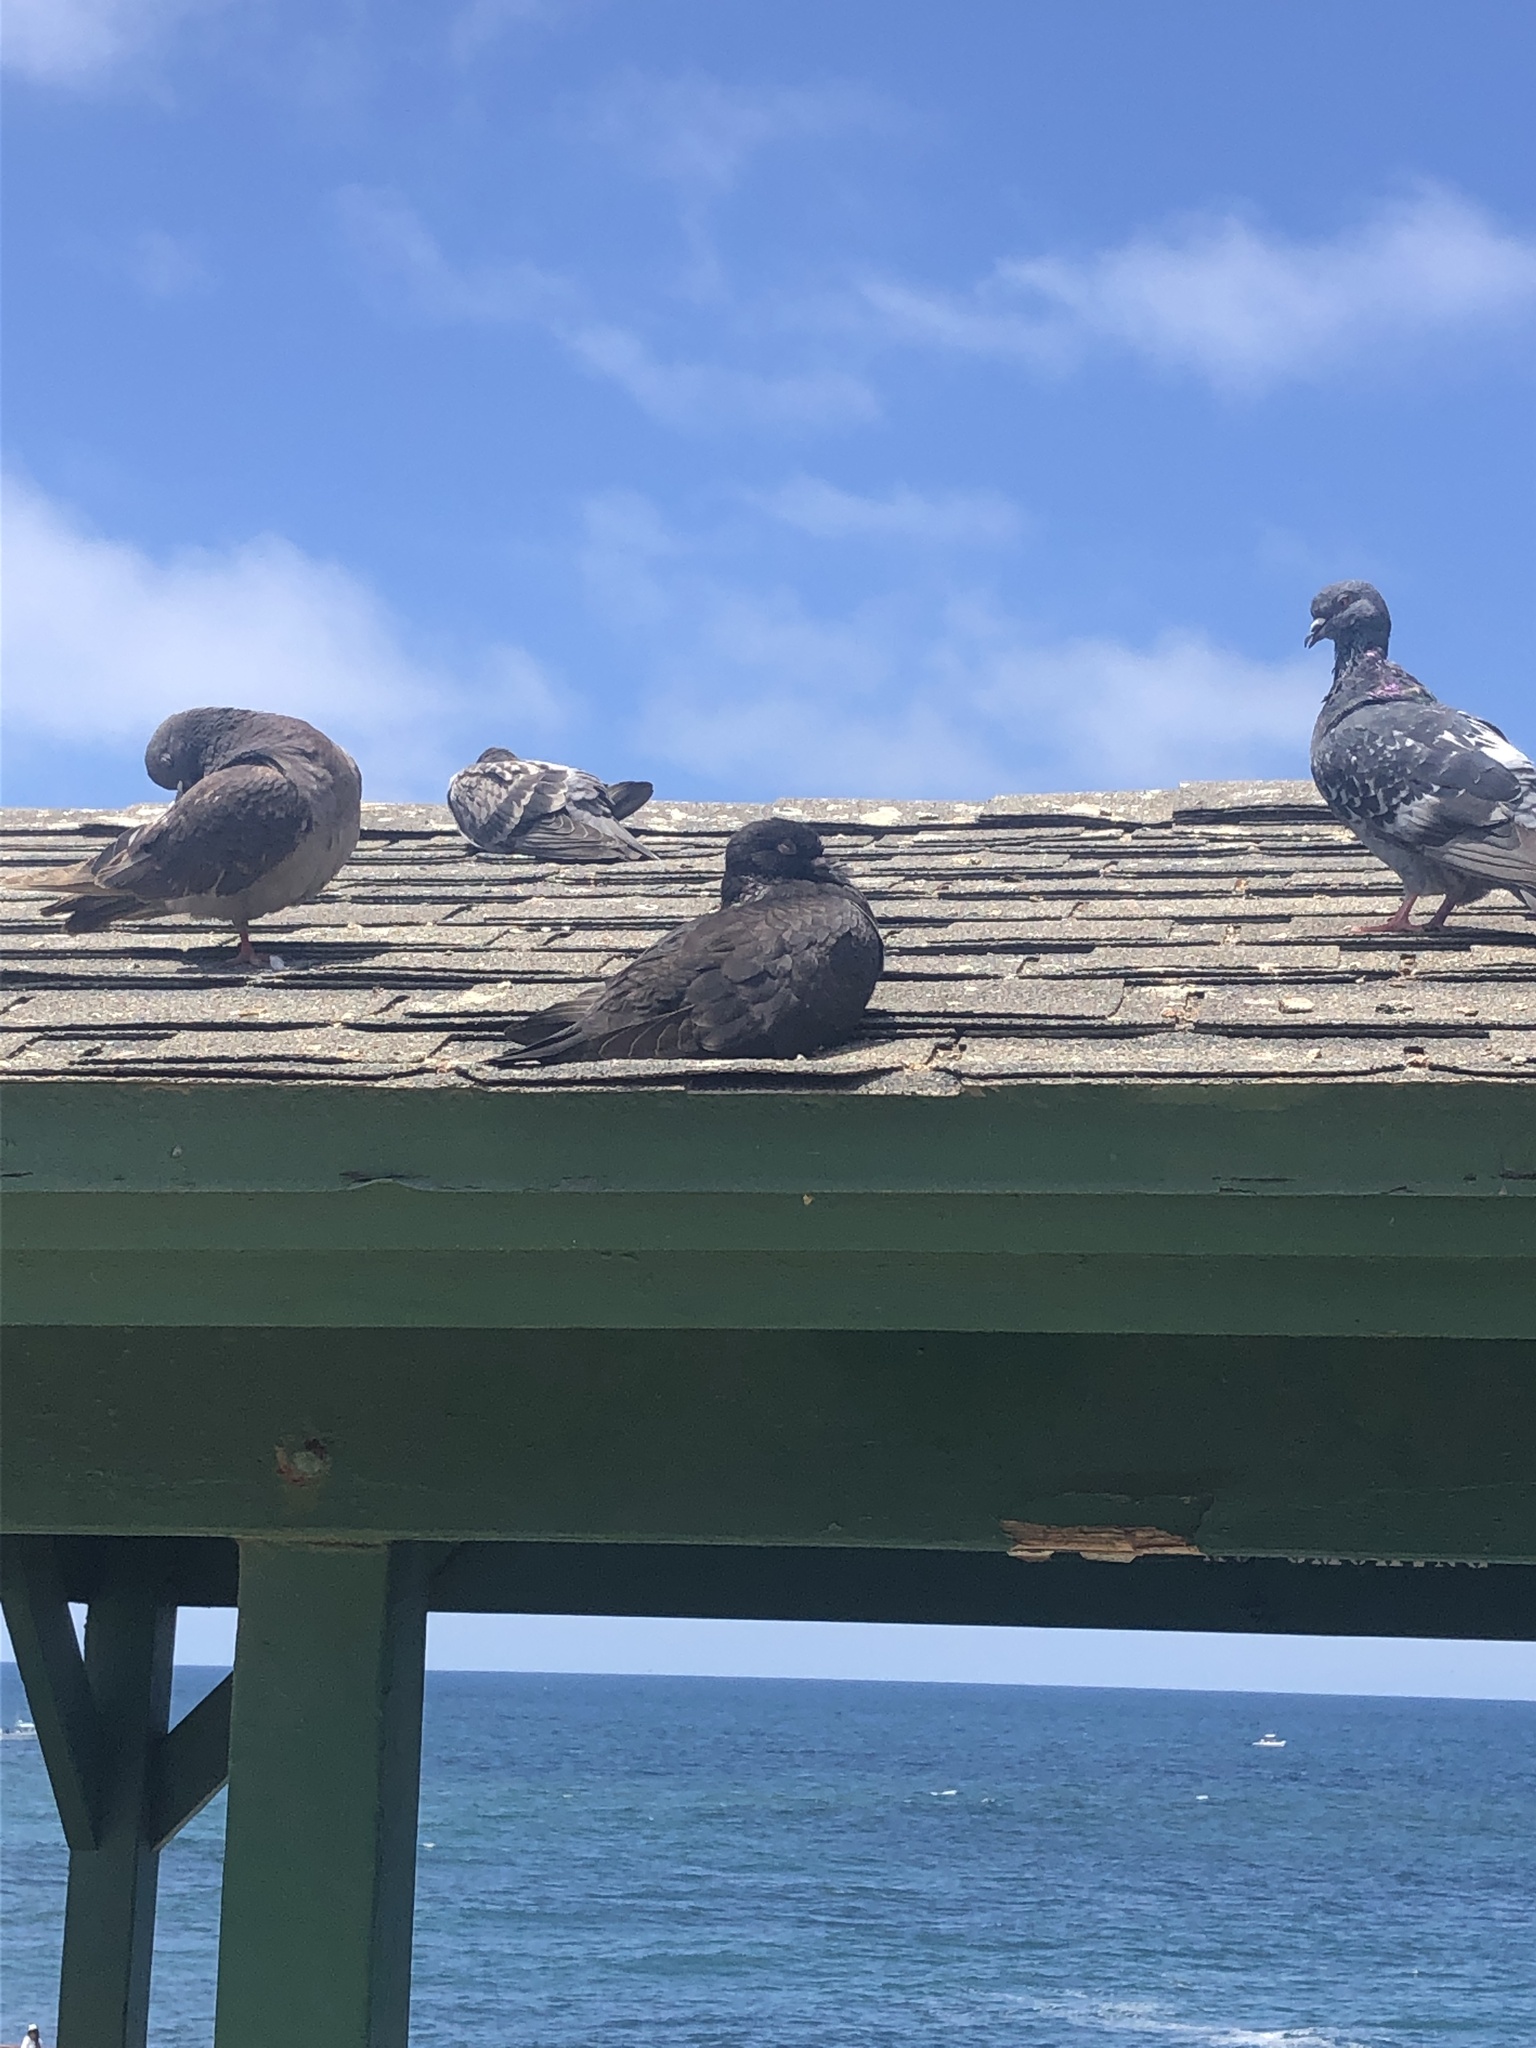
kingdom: Animalia
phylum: Chordata
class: Aves
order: Columbiformes
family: Columbidae
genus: Columba
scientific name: Columba livia
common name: Rock pigeon
